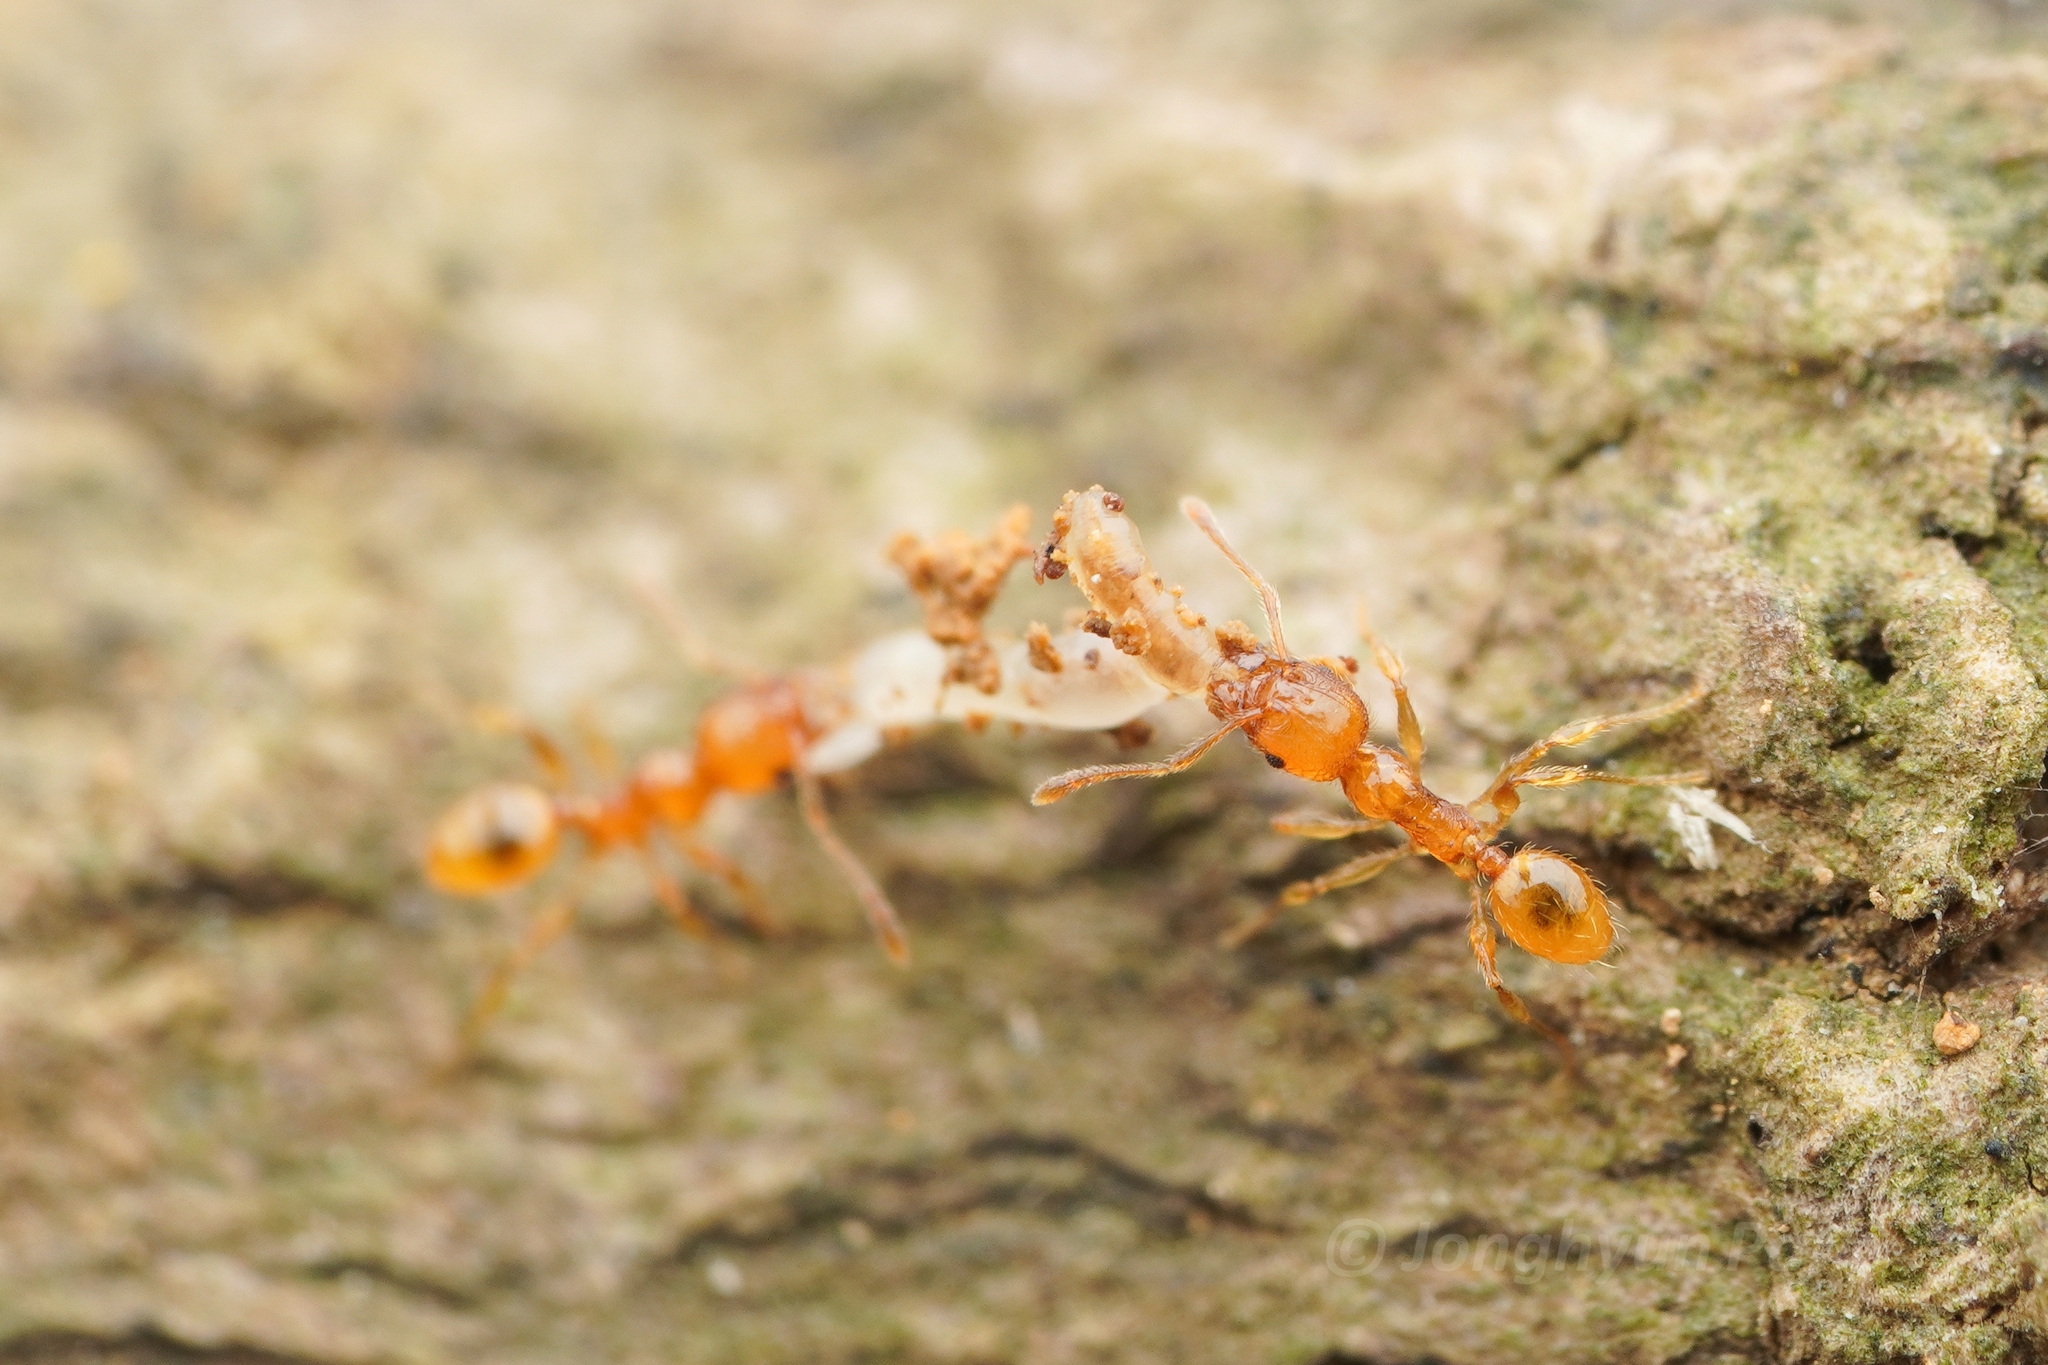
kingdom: Animalia
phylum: Arthropoda
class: Insecta
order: Hymenoptera
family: Formicidae
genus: Pheidole
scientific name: Pheidole pieli
